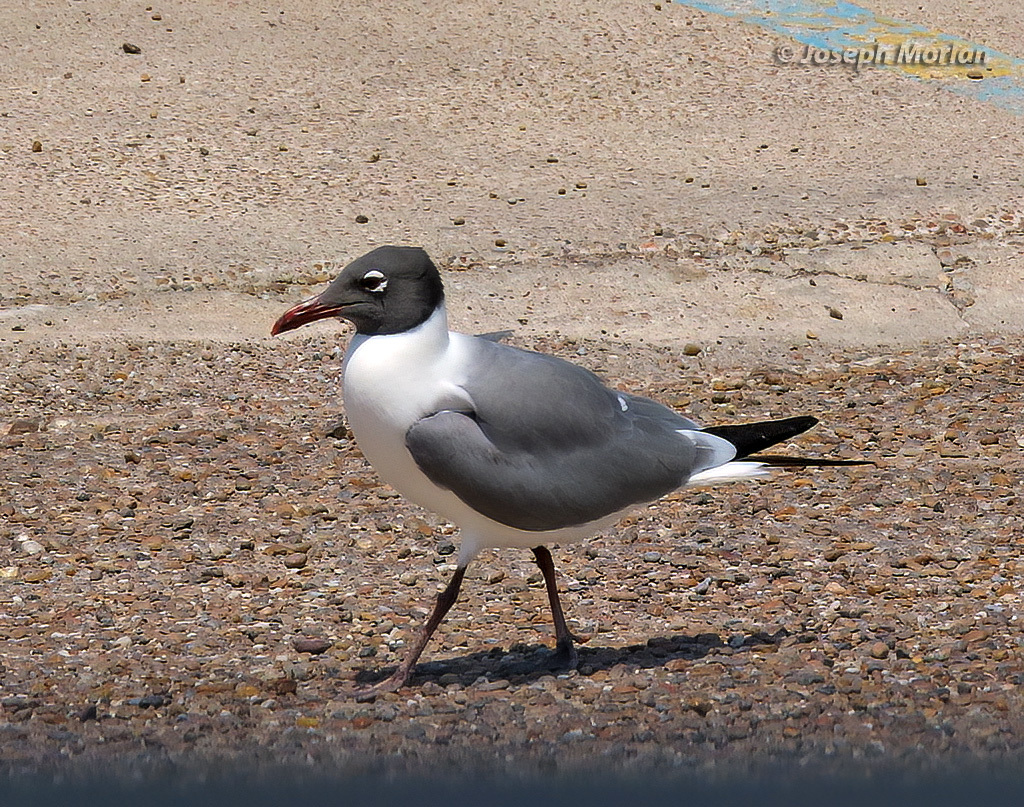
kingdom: Animalia
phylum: Chordata
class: Aves
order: Charadriiformes
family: Laridae
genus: Leucophaeus
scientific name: Leucophaeus atricilla
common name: Laughing gull
